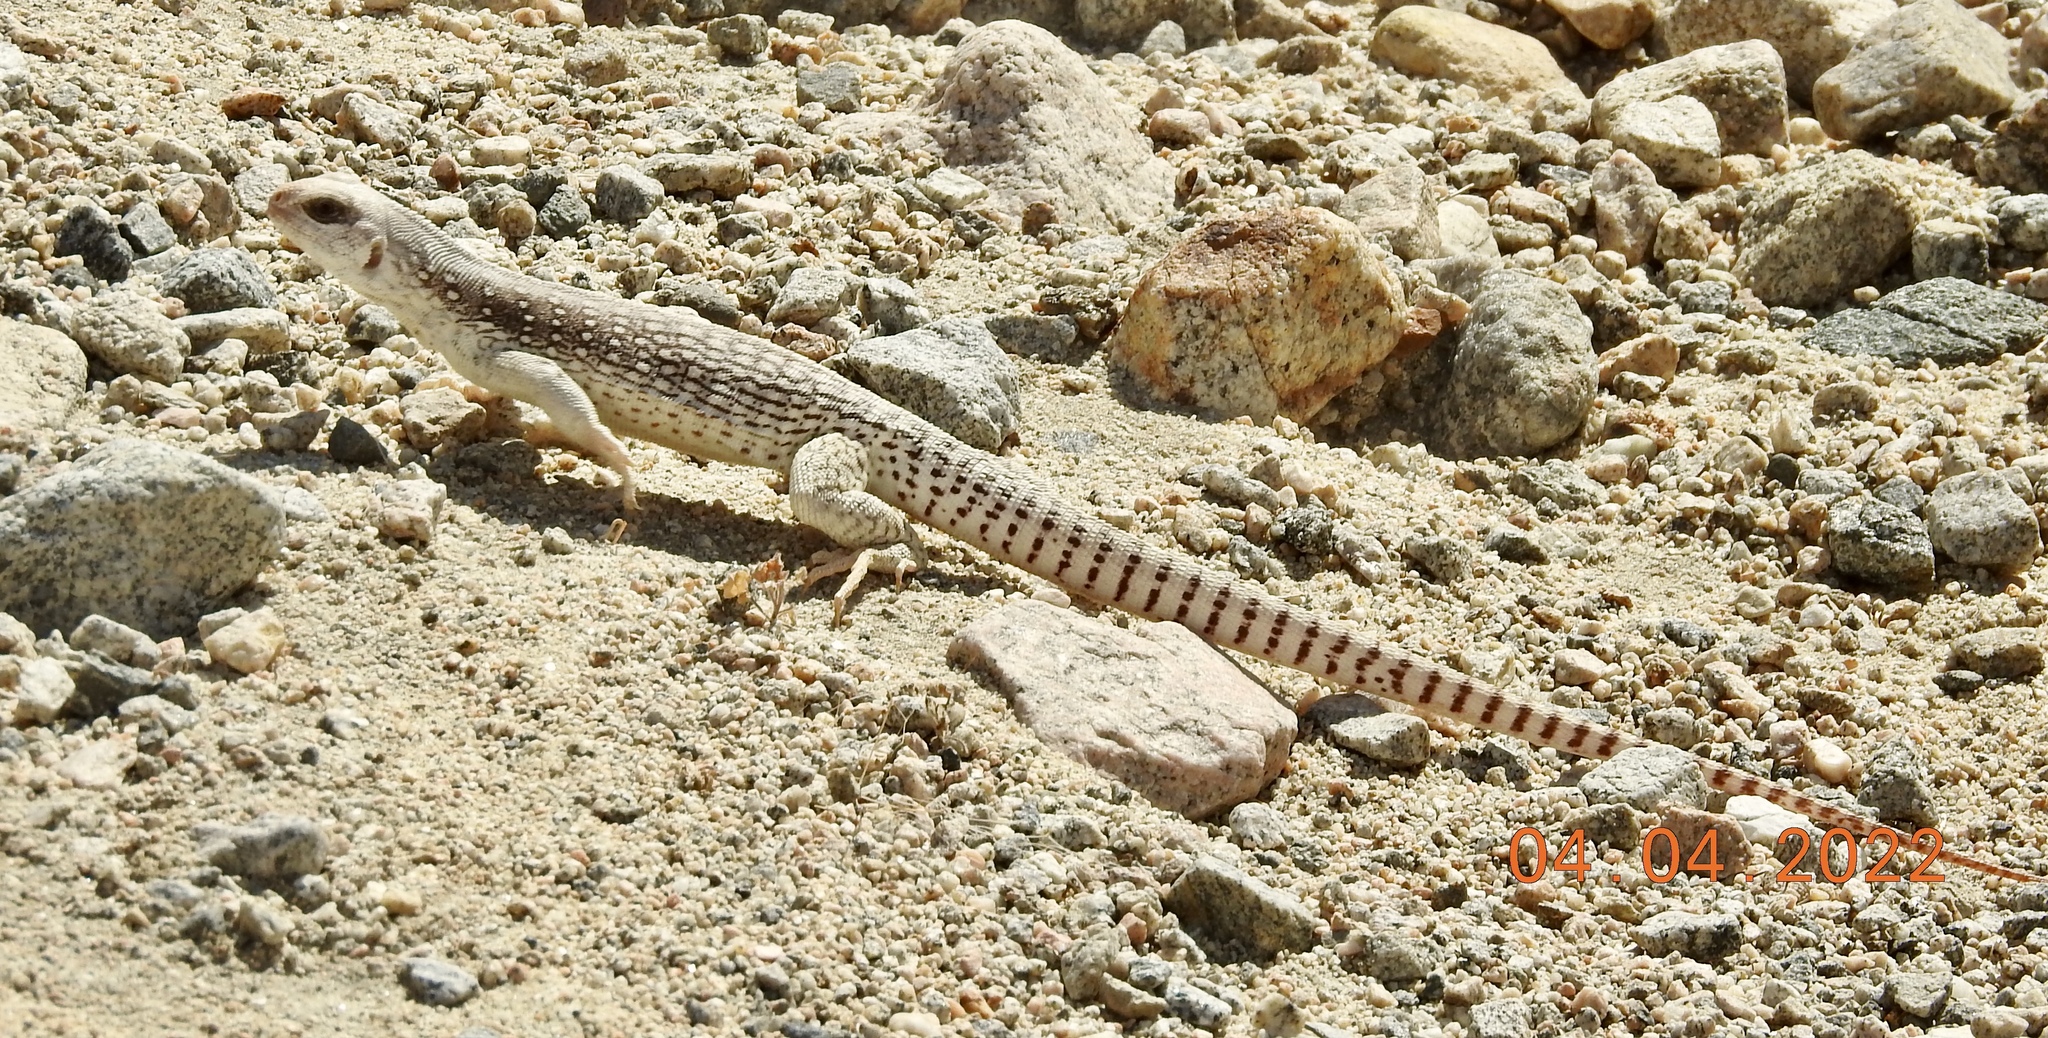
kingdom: Animalia
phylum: Chordata
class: Squamata
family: Iguanidae
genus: Dipsosaurus
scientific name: Dipsosaurus dorsalis
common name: Desert iguana
